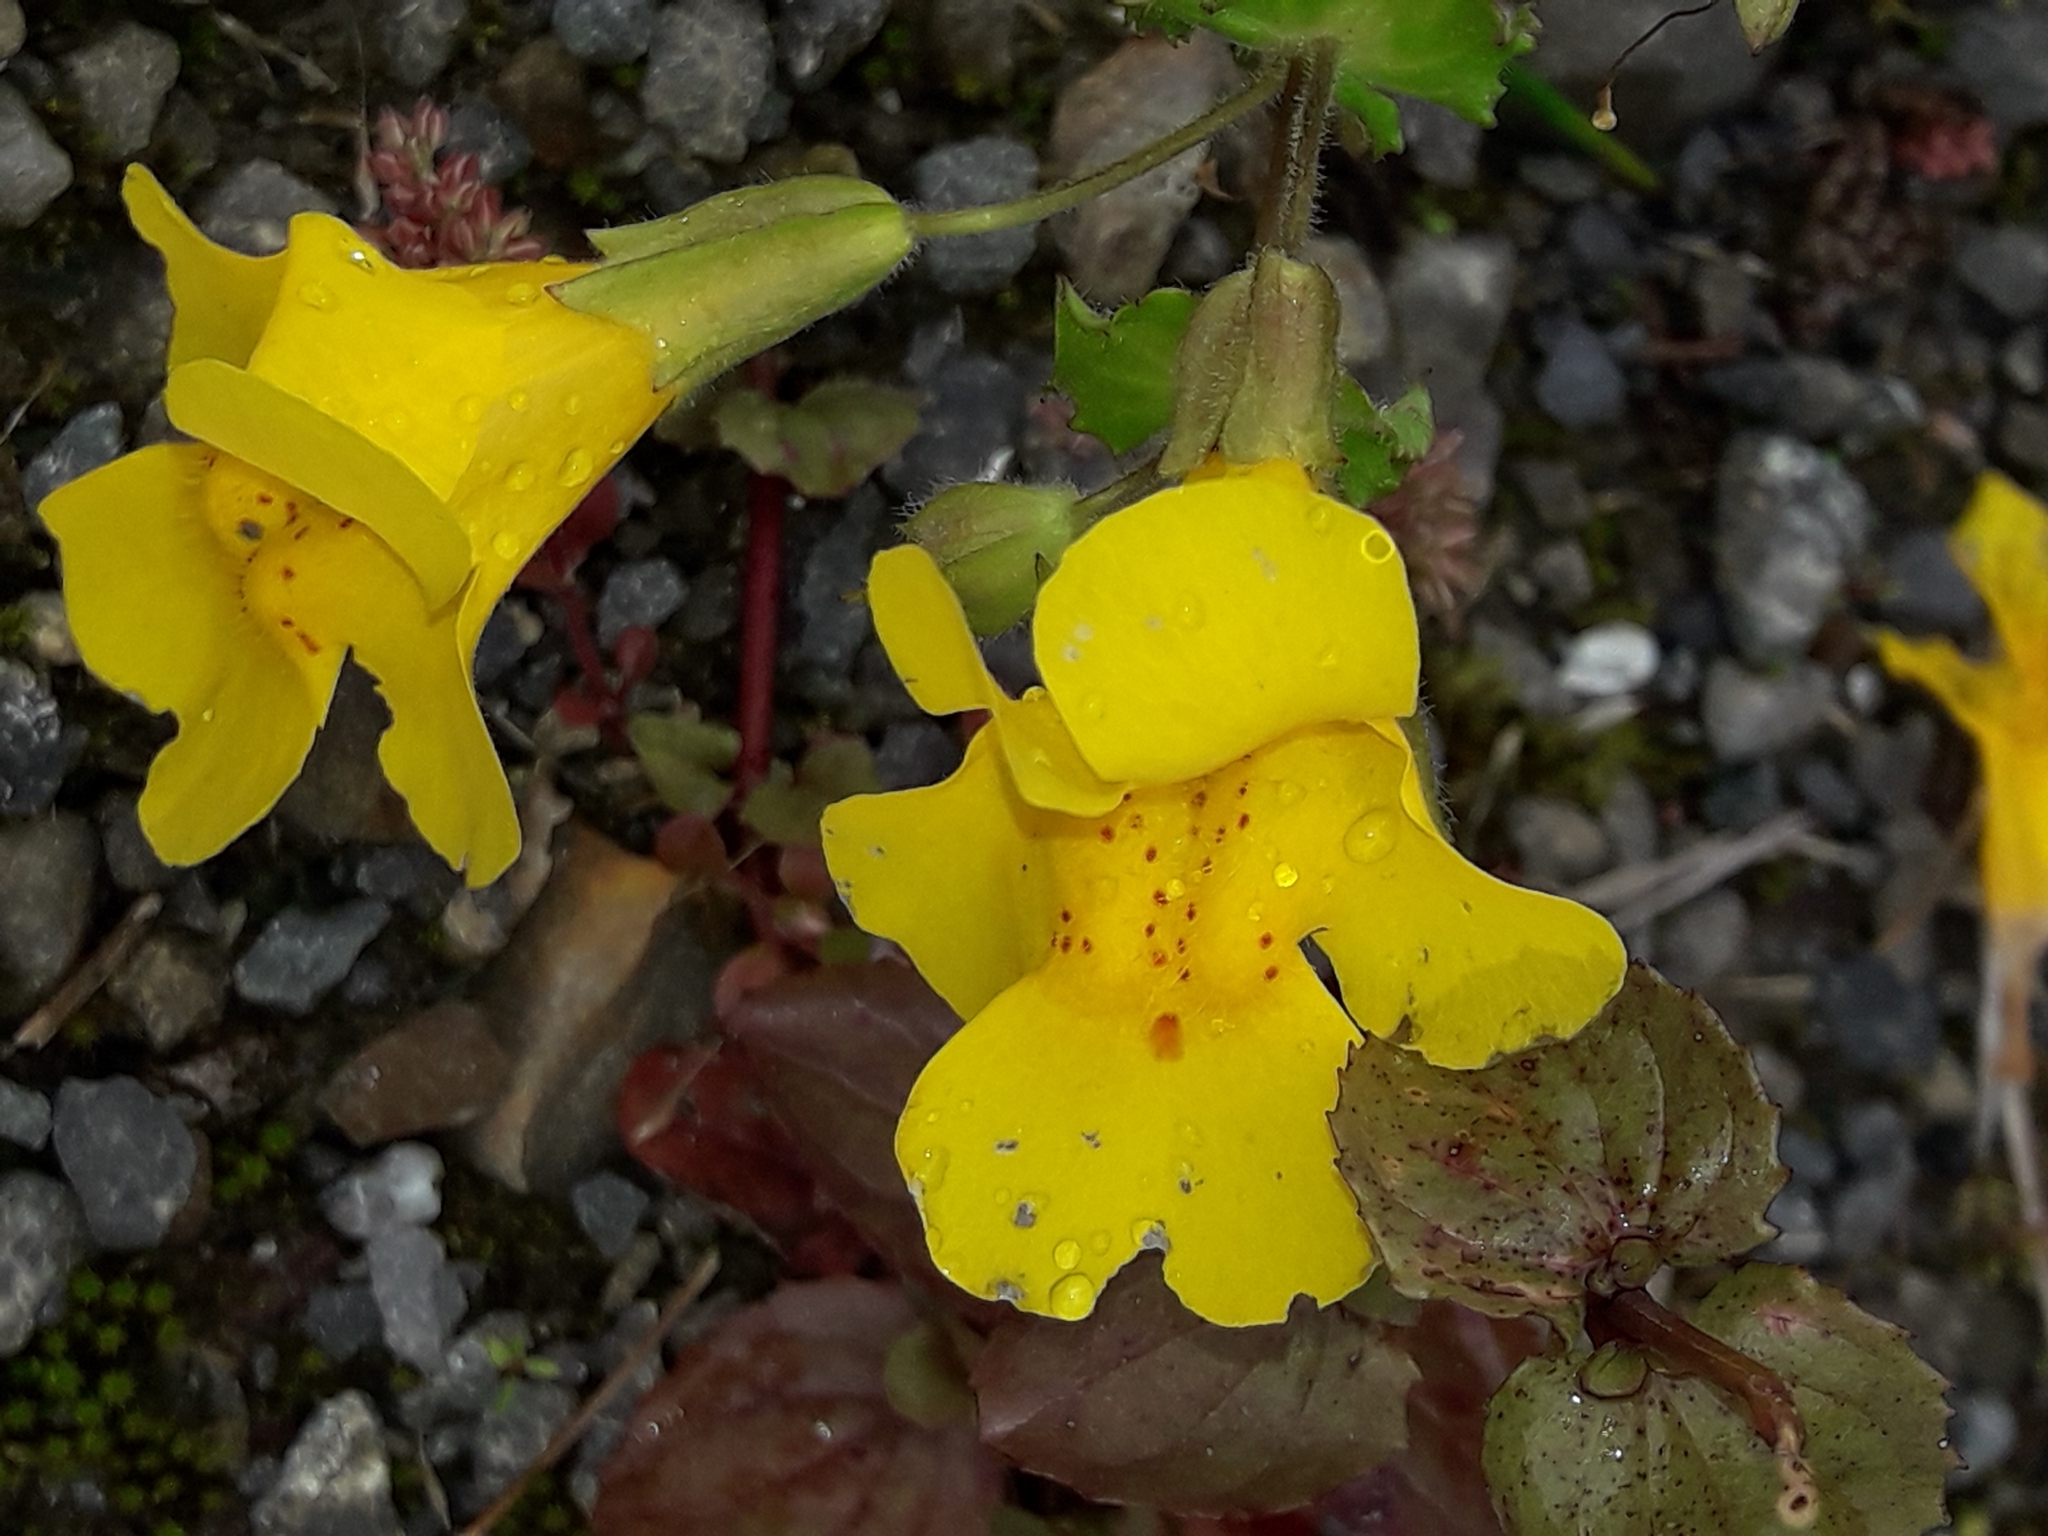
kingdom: Plantae
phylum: Tracheophyta
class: Magnoliopsida
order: Lamiales
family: Phrymaceae
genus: Erythranthe
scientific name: Erythranthe guttata
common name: Monkeyflower
